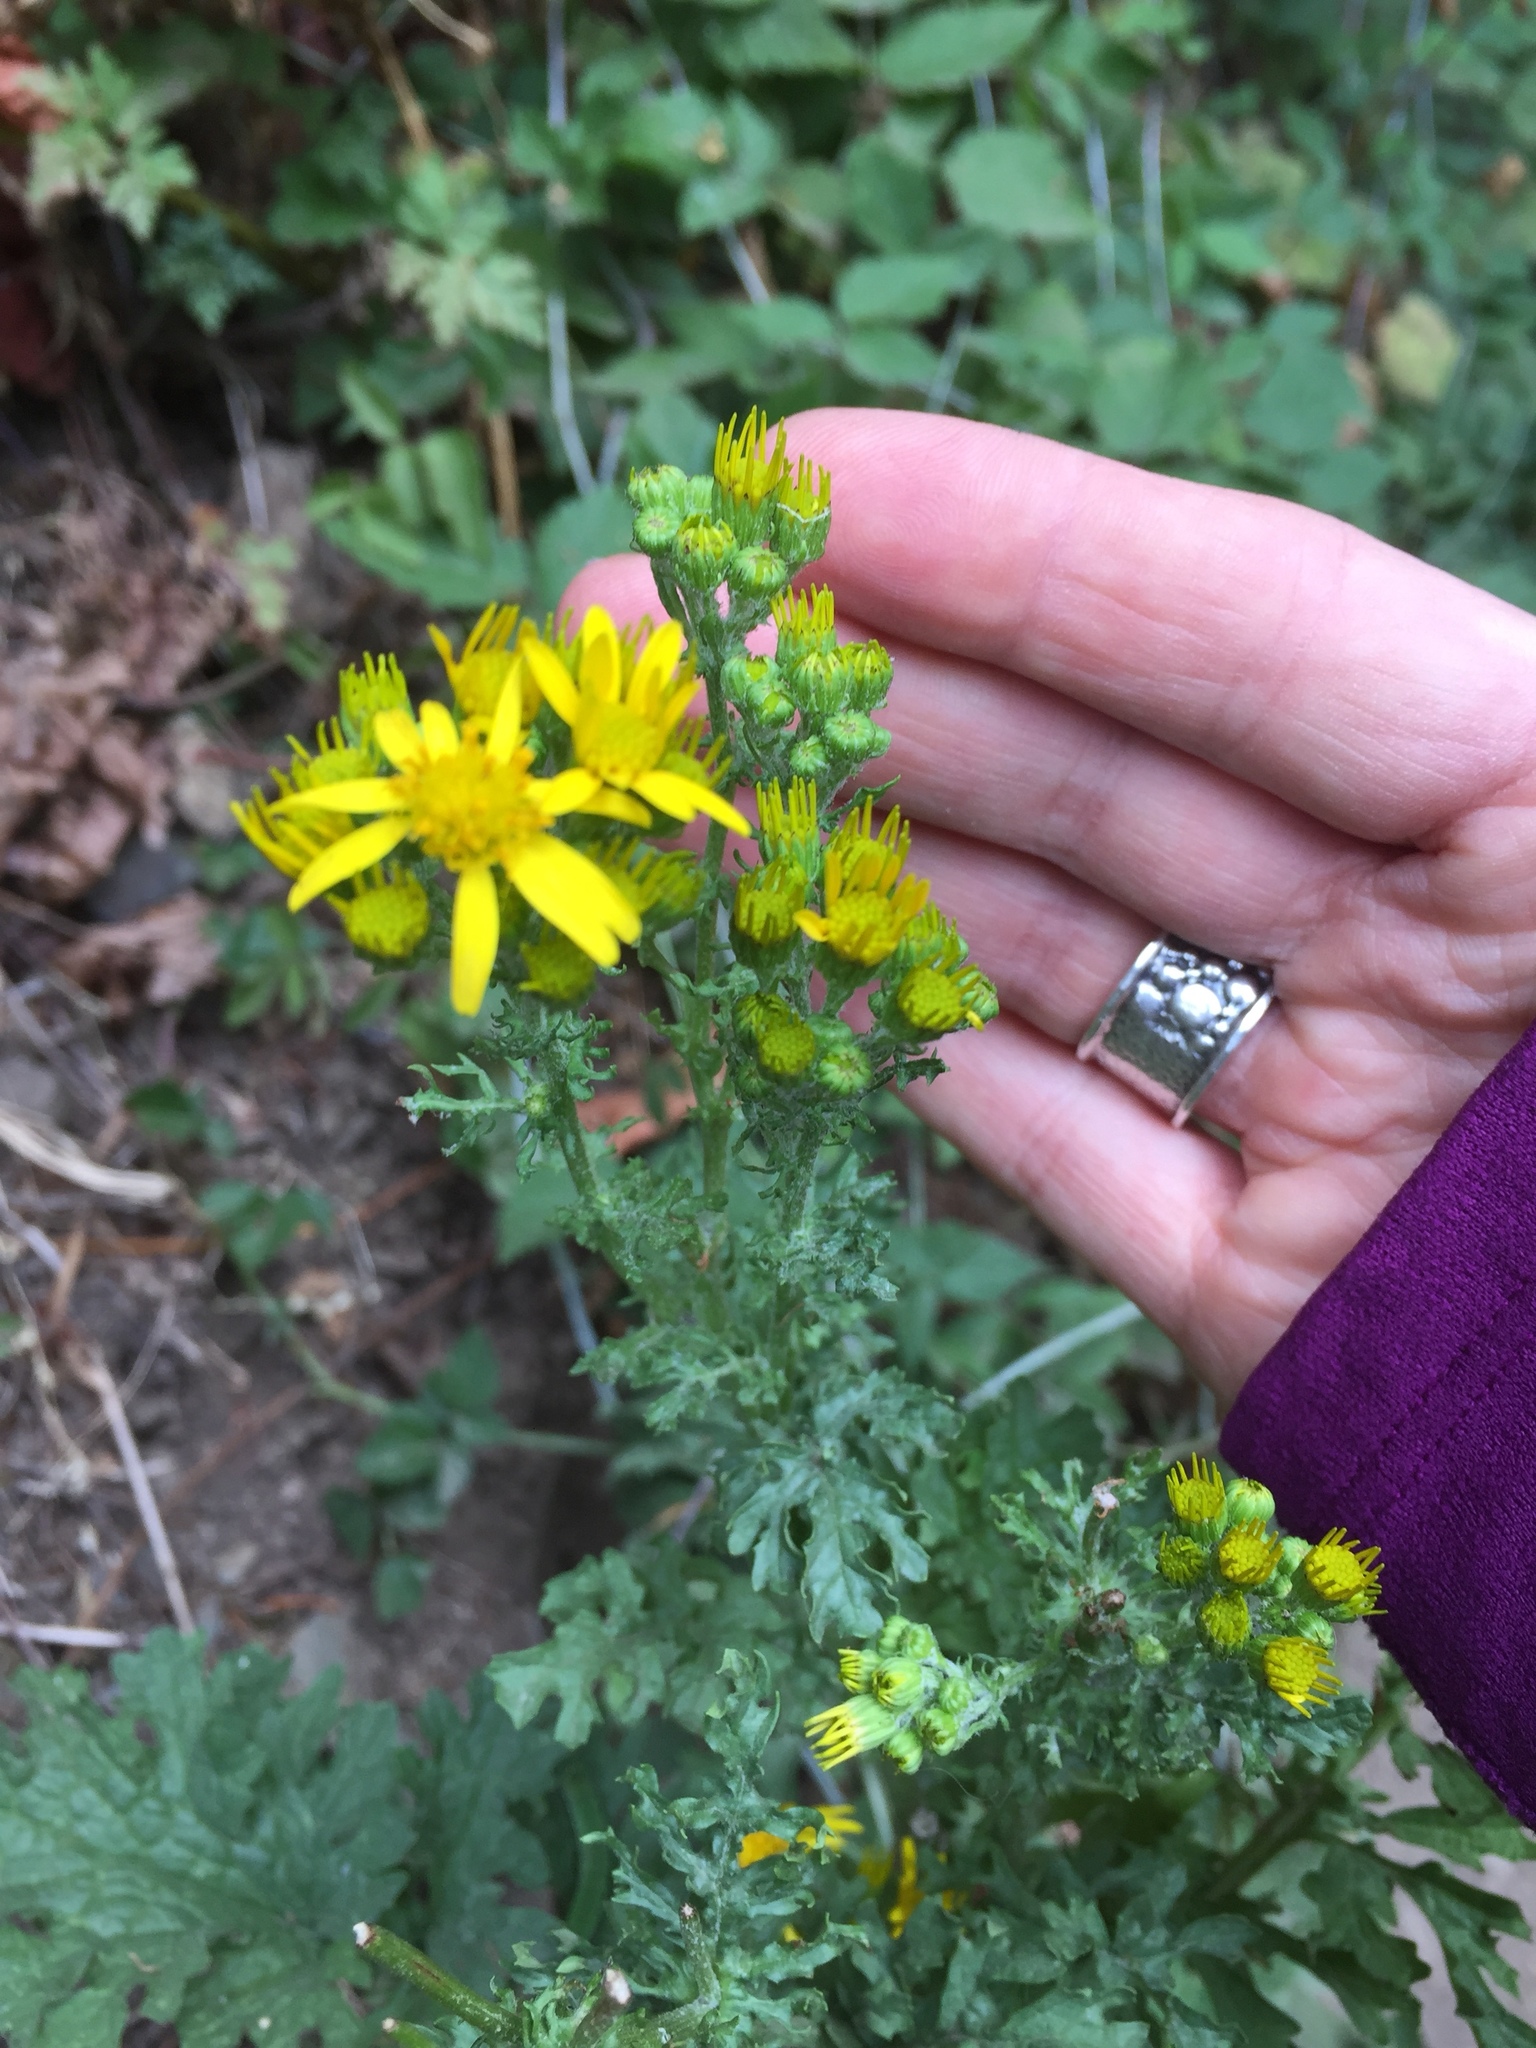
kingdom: Plantae
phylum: Tracheophyta
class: Magnoliopsida
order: Asterales
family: Asteraceae
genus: Jacobaea
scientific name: Jacobaea vulgaris
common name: Stinking willie
